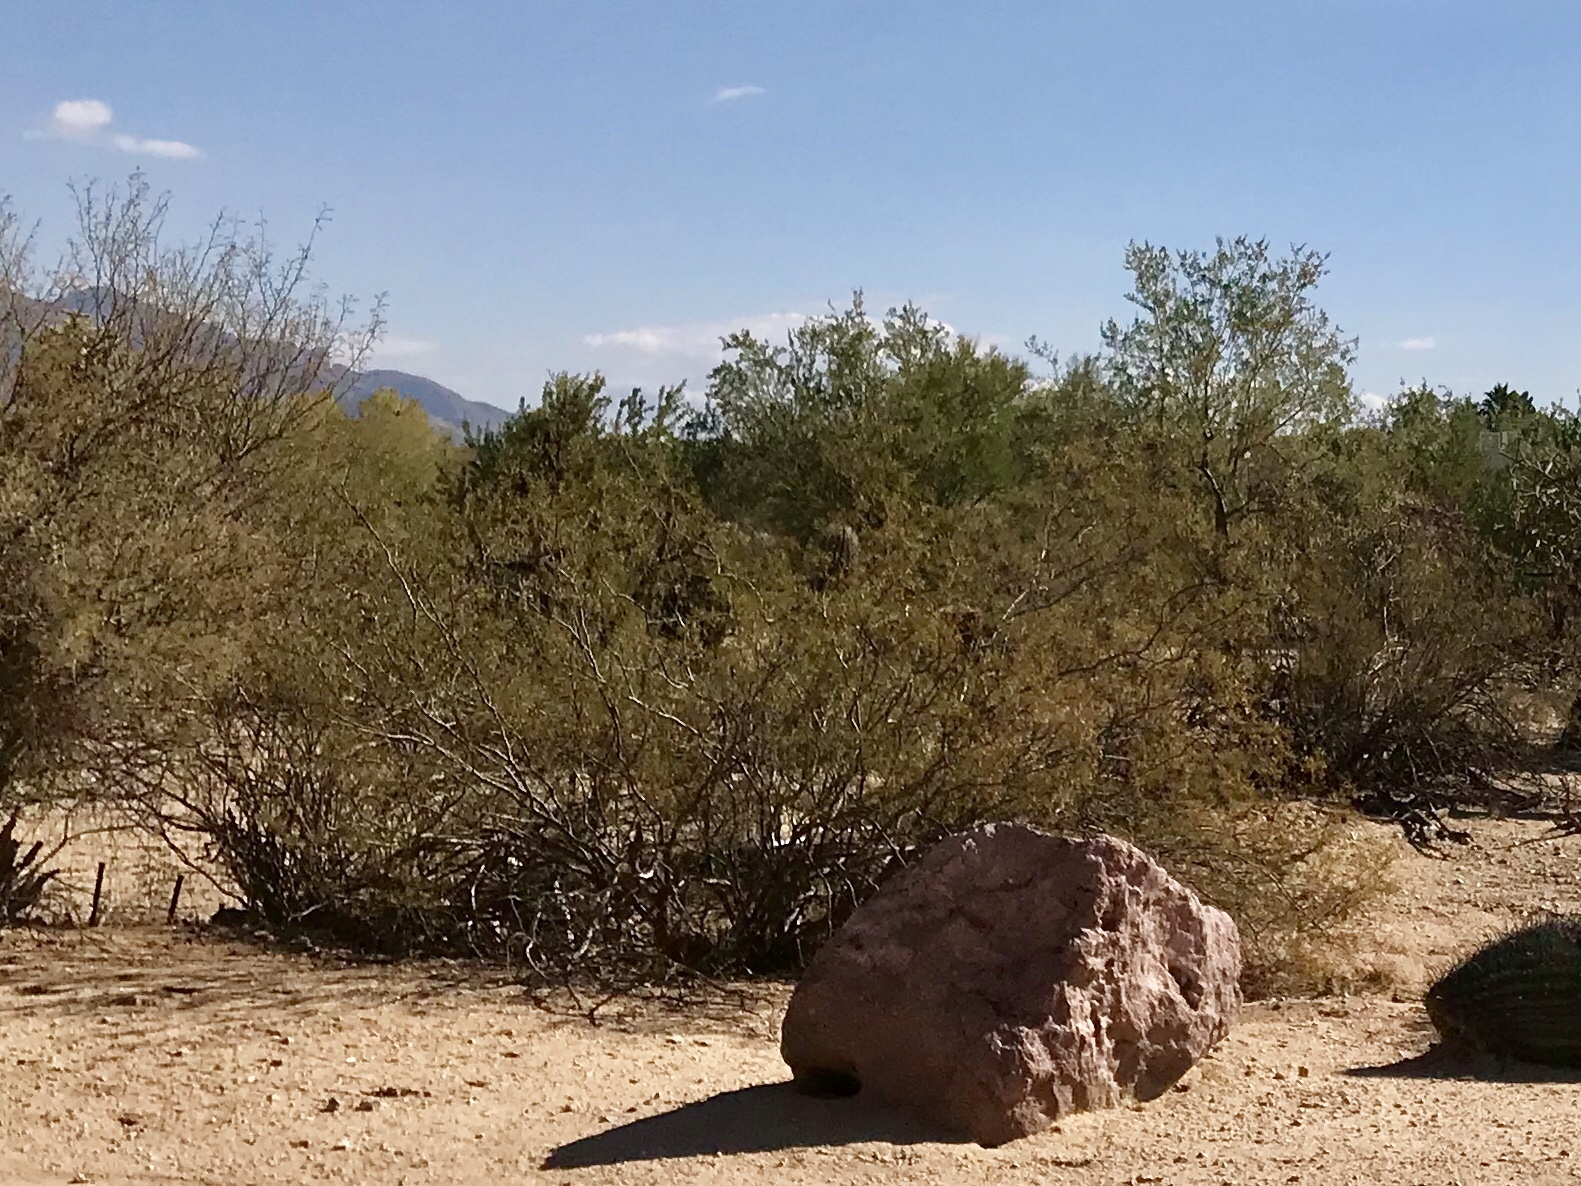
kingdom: Plantae
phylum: Tracheophyta
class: Magnoliopsida
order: Zygophyllales
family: Zygophyllaceae
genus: Larrea
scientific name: Larrea tridentata
